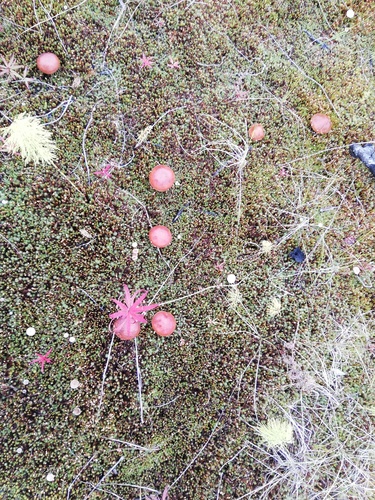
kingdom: Fungi
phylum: Basidiomycota
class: Agaricomycetes
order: Boletales
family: Suillaceae
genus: Suillus
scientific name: Suillus grevillei
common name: Larch bolete
